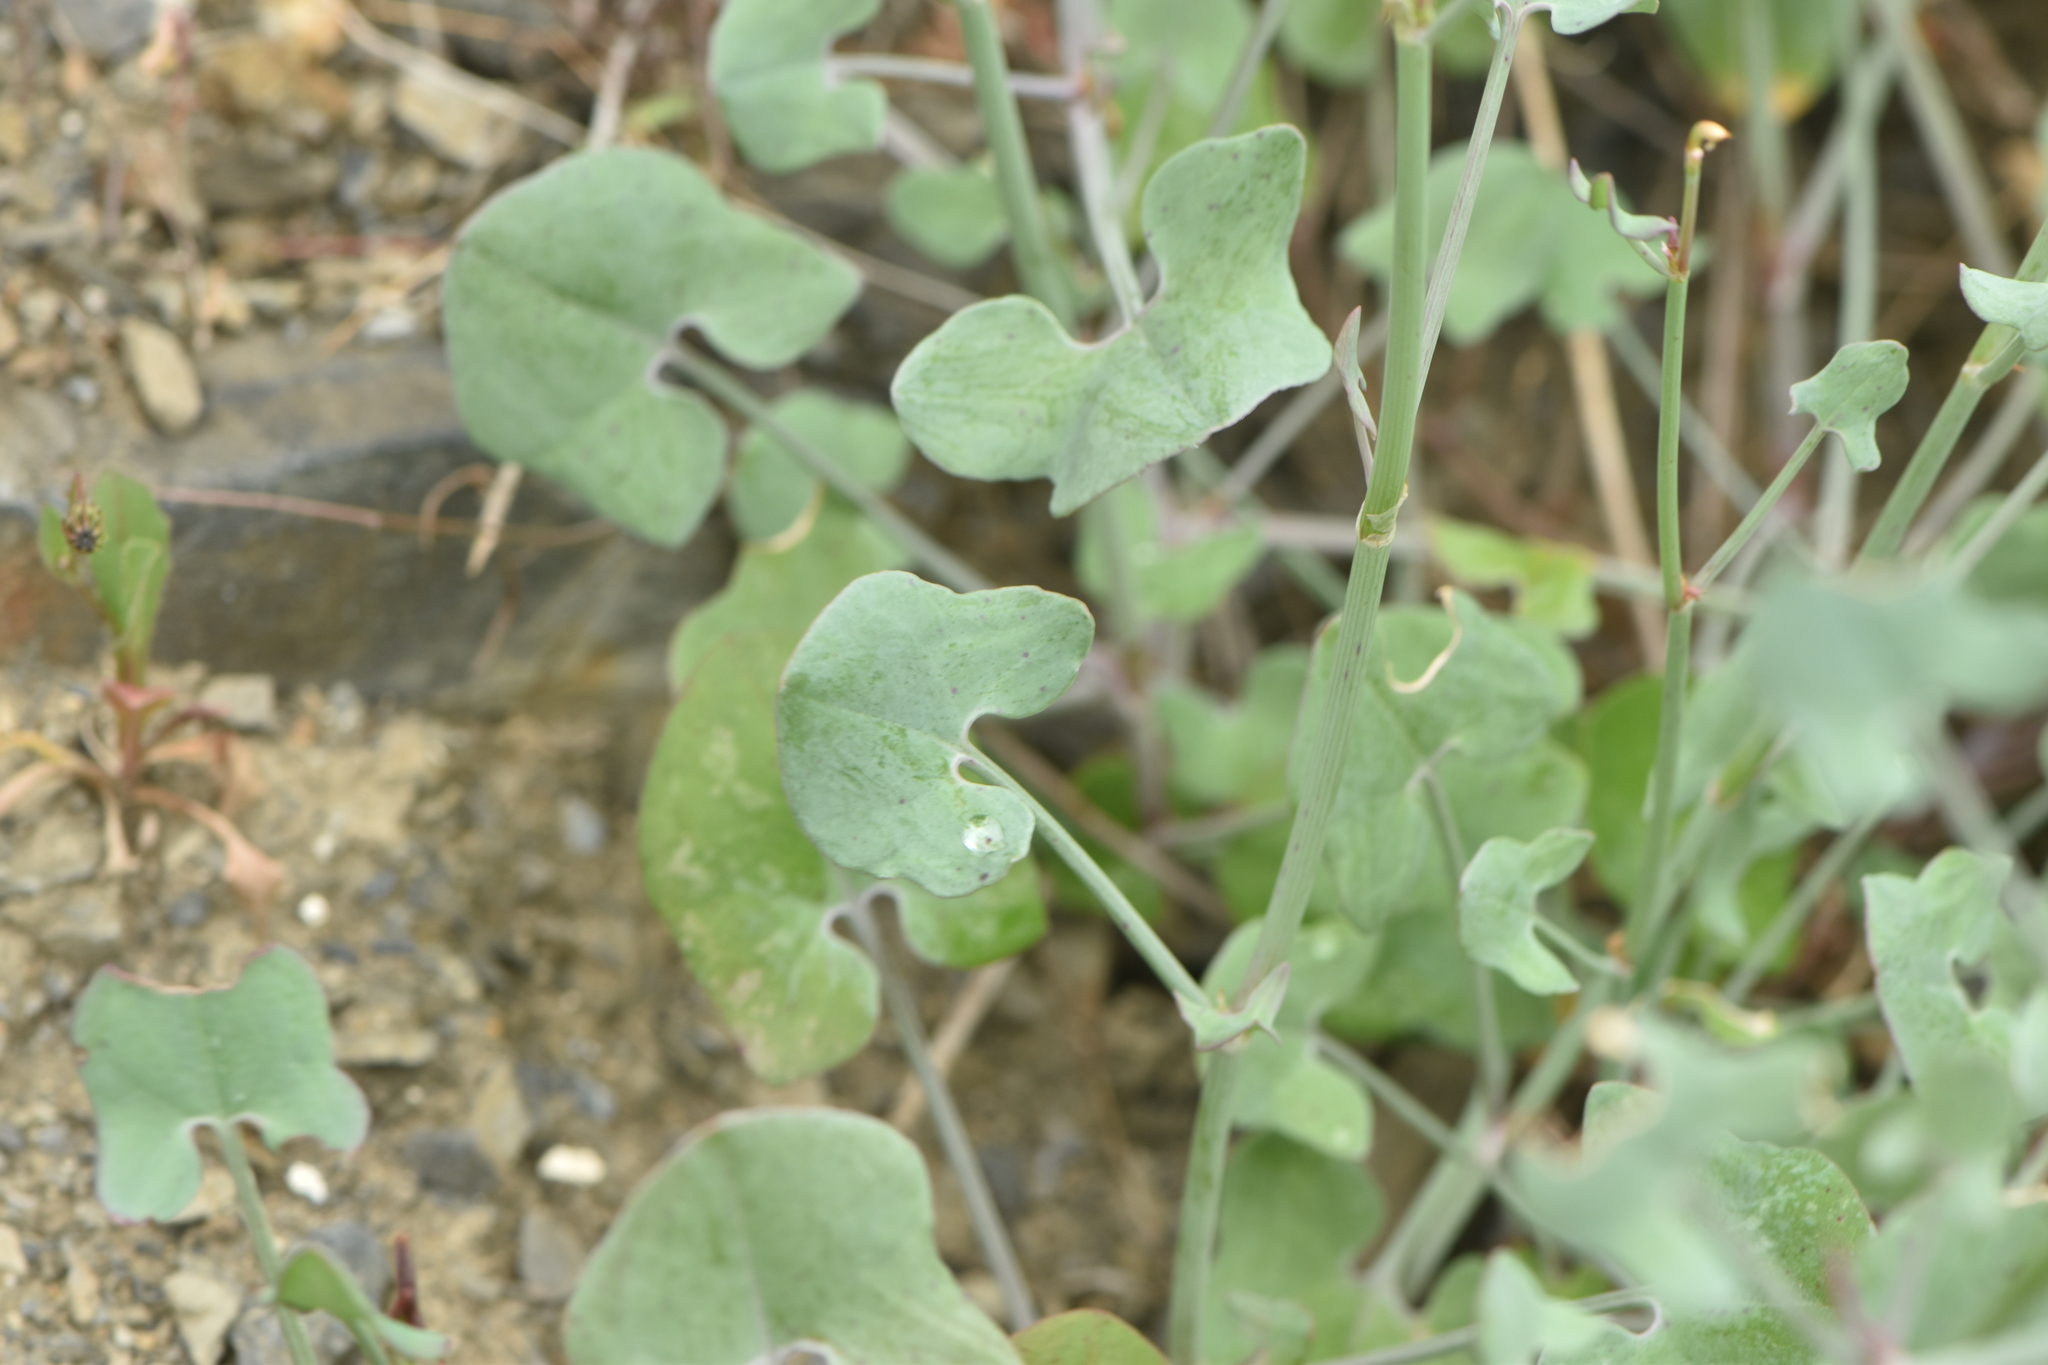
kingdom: Plantae
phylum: Tracheophyta
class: Magnoliopsida
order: Caryophyllales
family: Polygonaceae
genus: Rumex
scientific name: Rumex induratus
